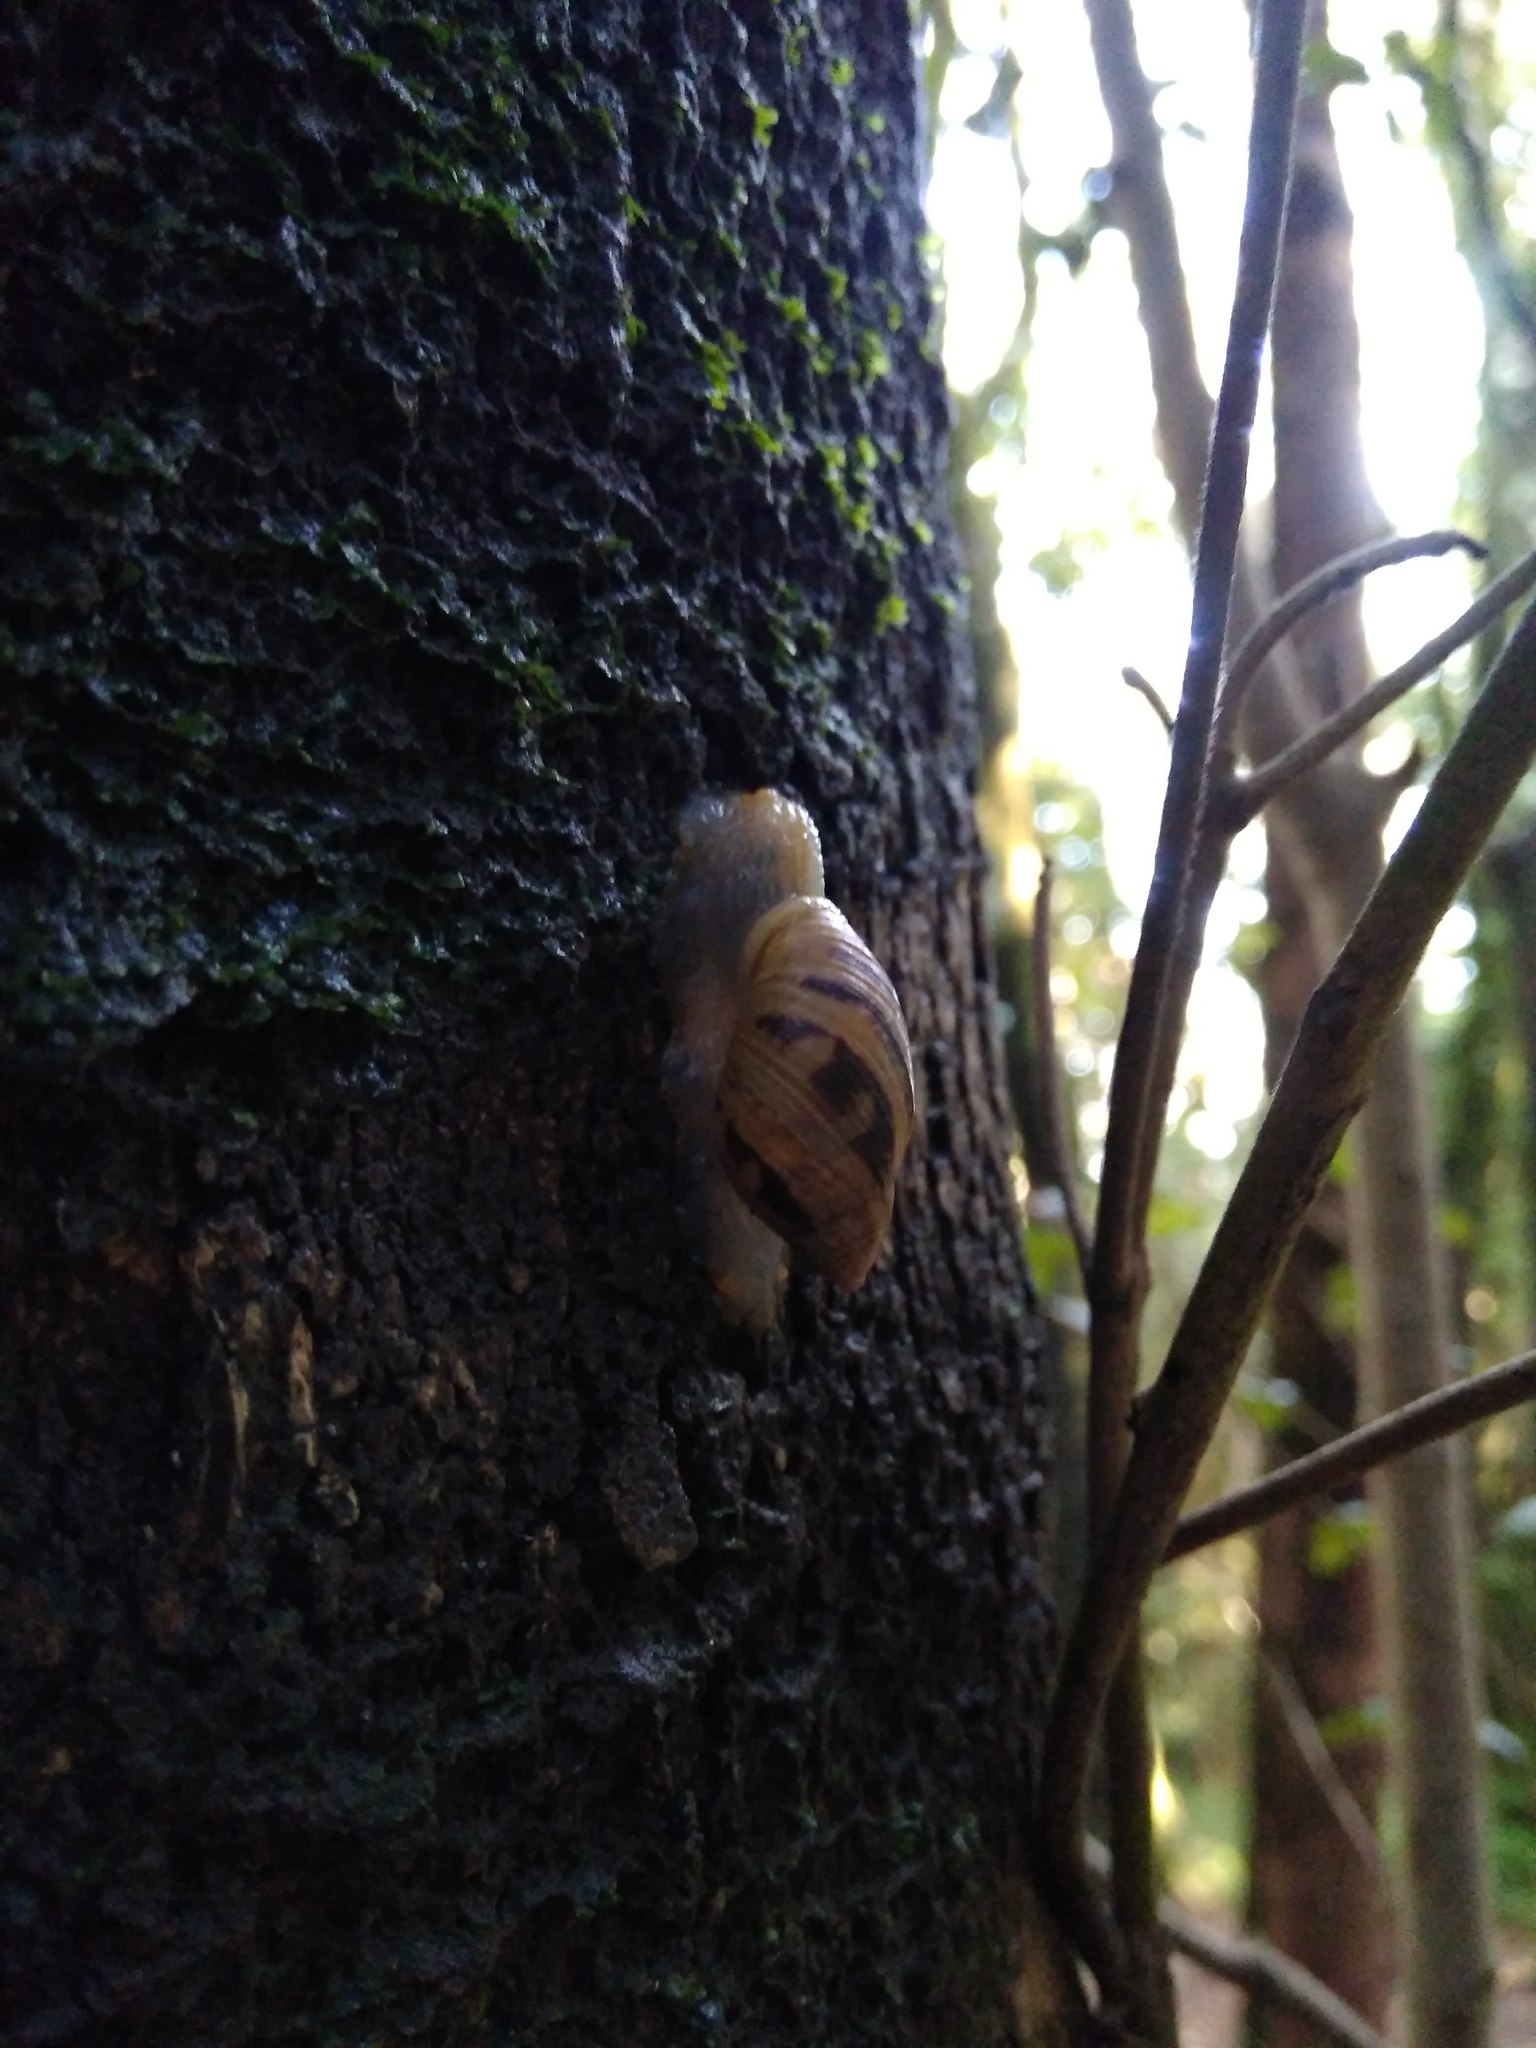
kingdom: Animalia
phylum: Mollusca
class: Gastropoda
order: Stylommatophora
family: Bothriembryontidae
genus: Plectostylus
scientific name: Plectostylus araucanus
